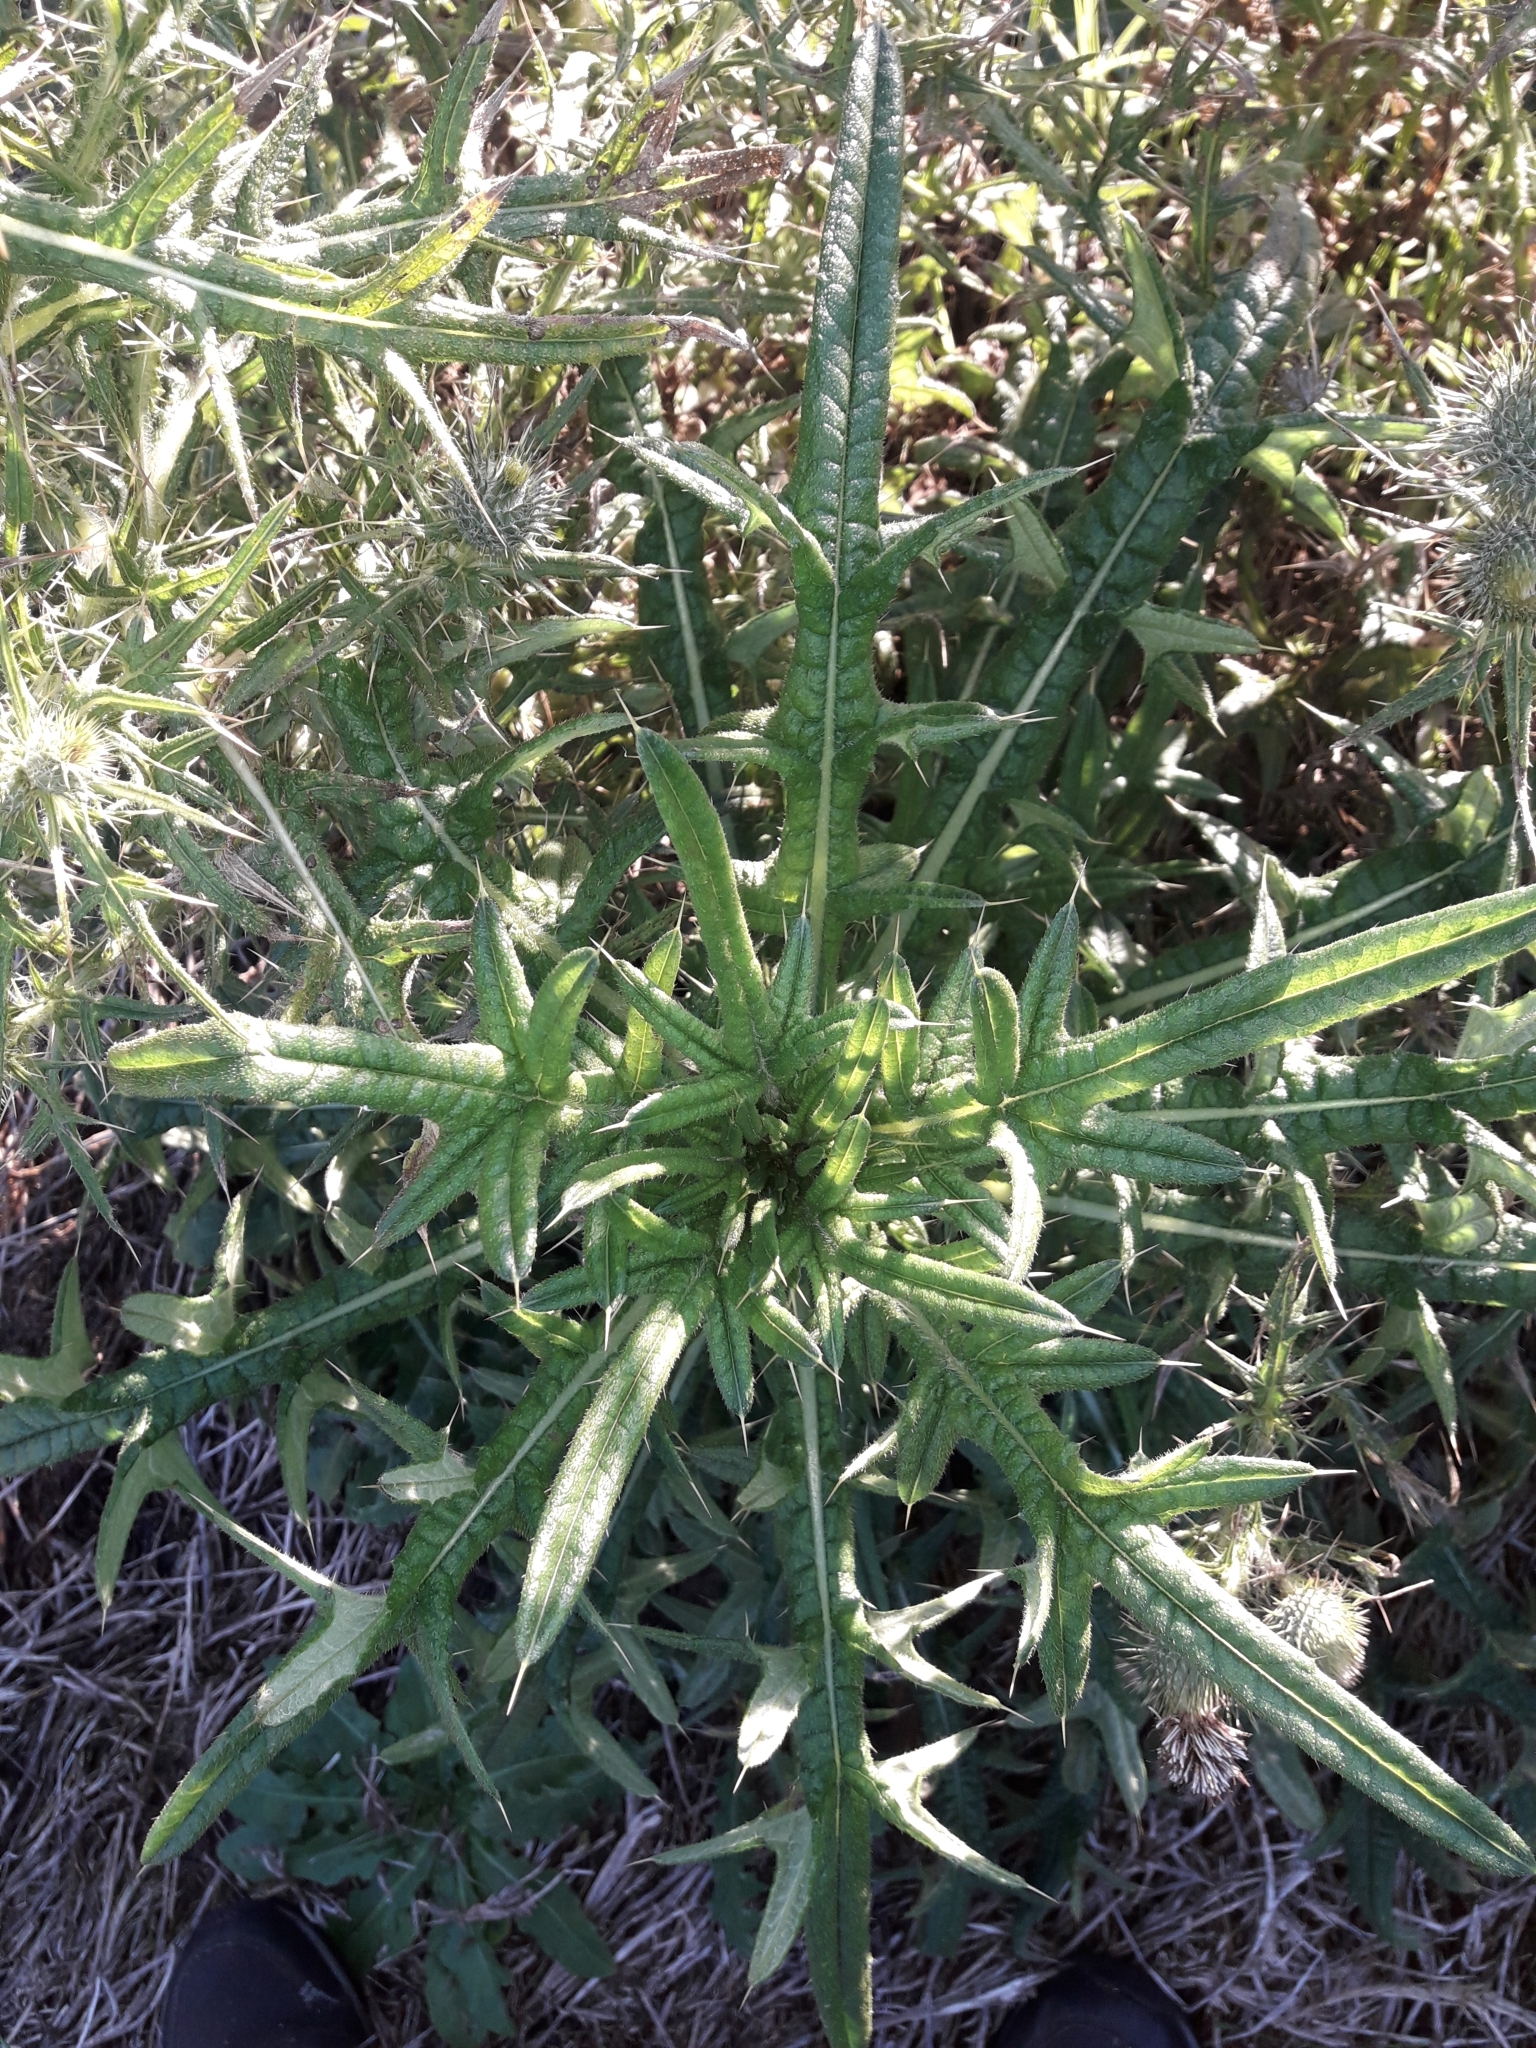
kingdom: Plantae
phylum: Tracheophyta
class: Magnoliopsida
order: Asterales
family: Asteraceae
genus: Cirsium
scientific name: Cirsium vulgare
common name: Bull thistle
